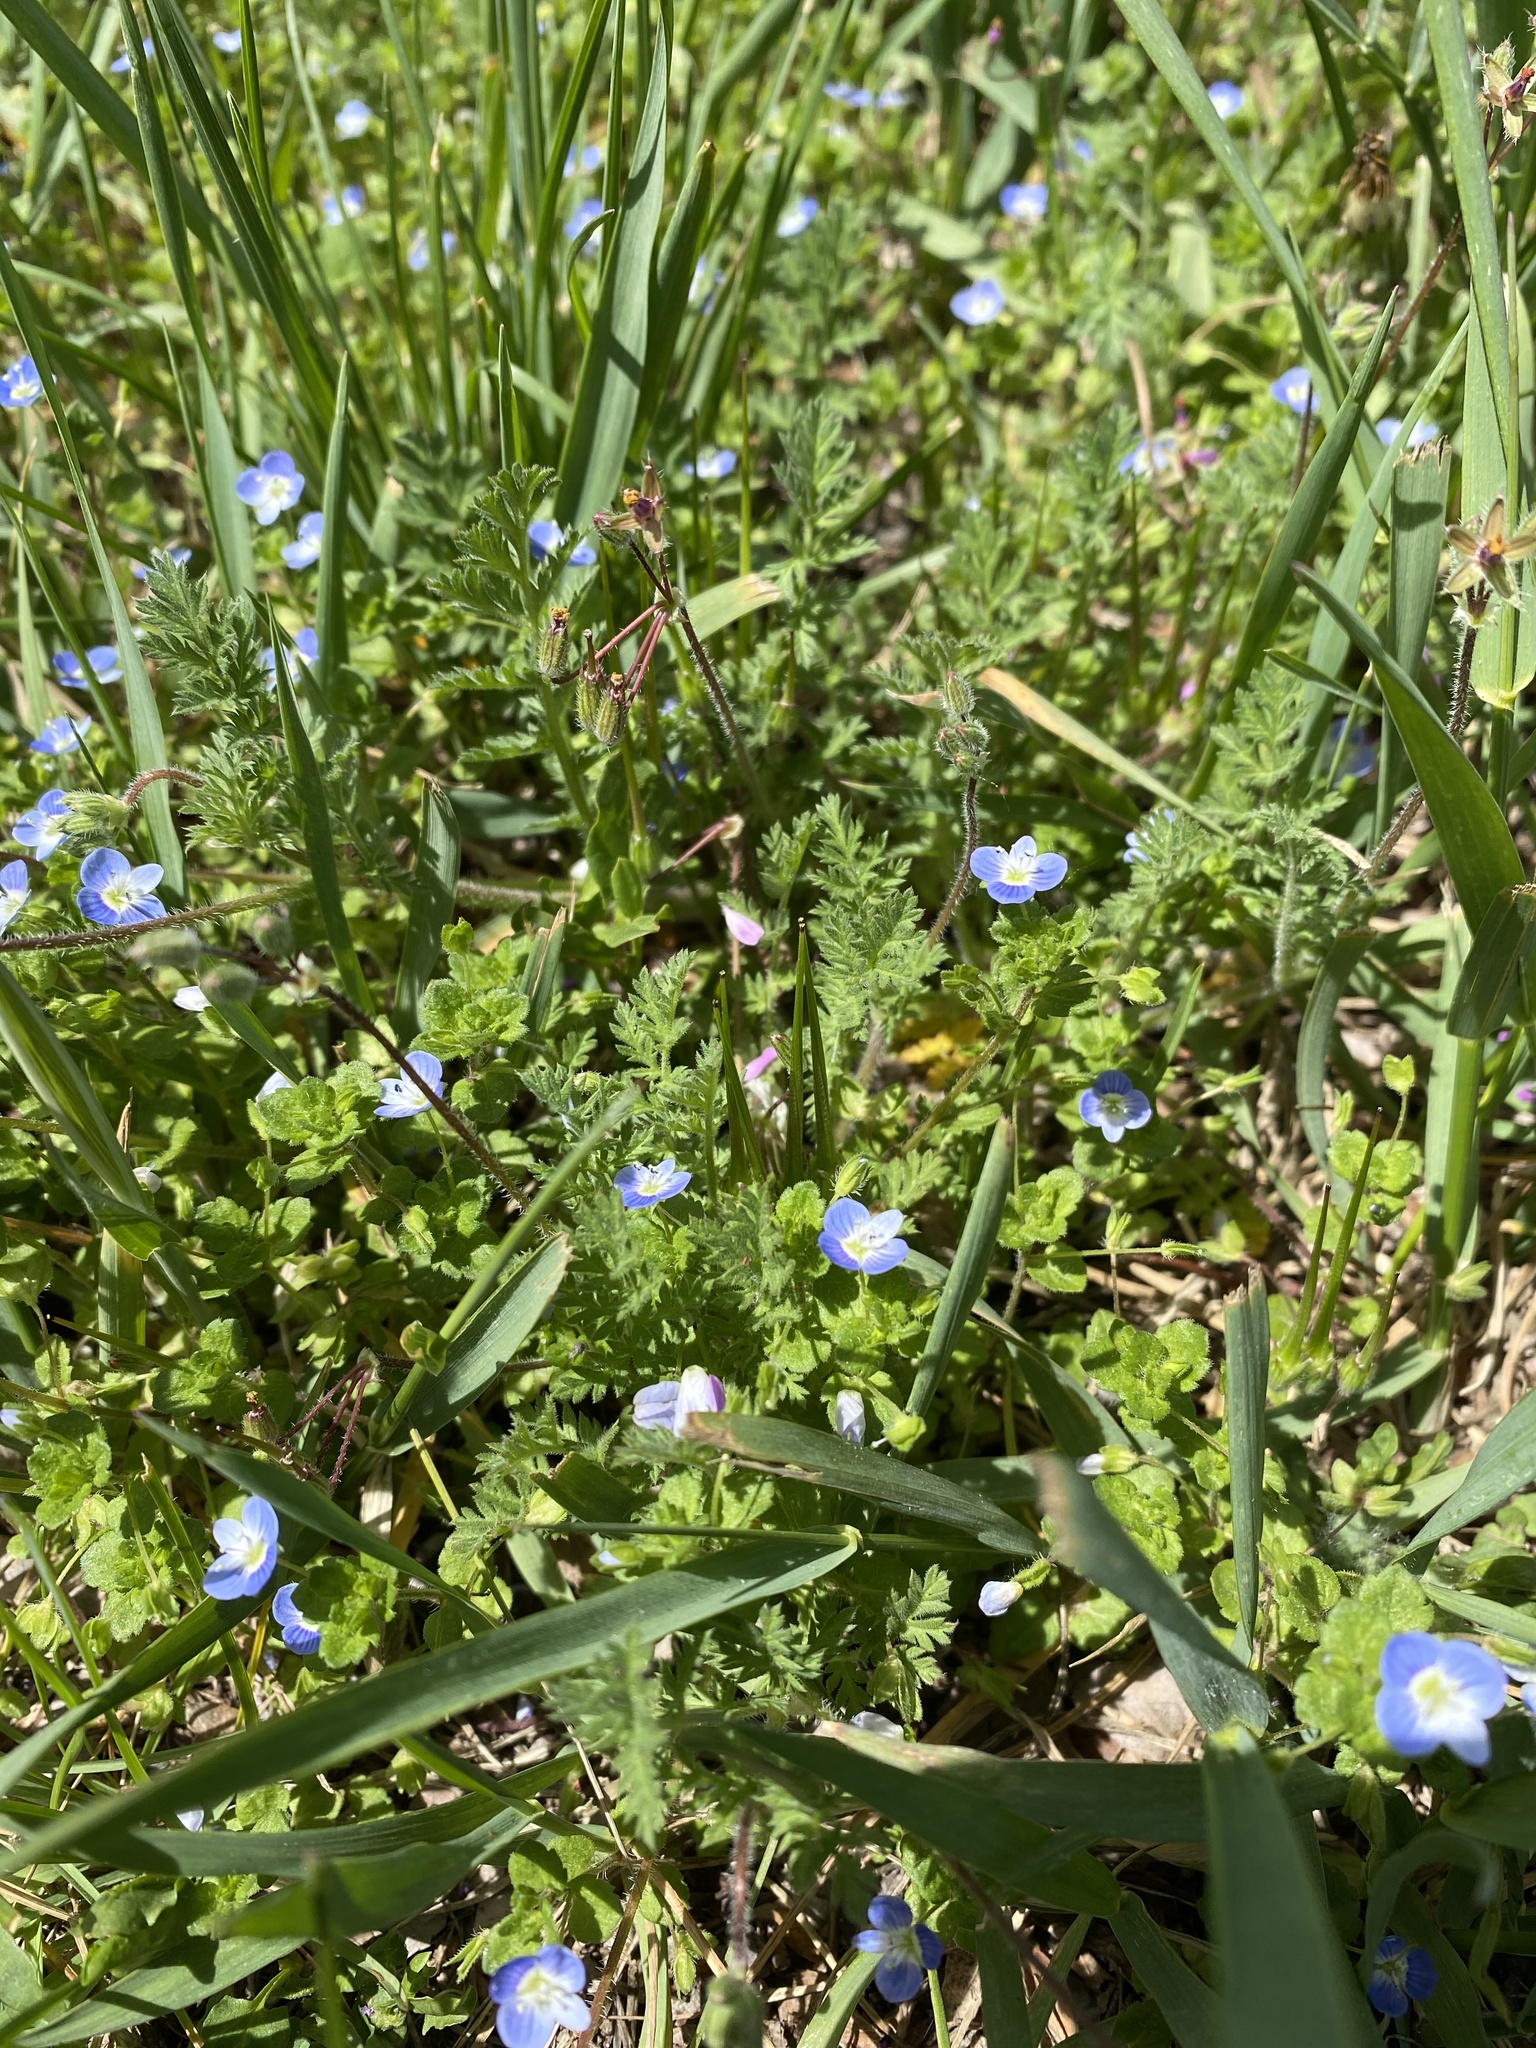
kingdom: Plantae
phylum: Tracheophyta
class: Magnoliopsida
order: Lamiales
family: Plantaginaceae
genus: Veronica
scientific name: Veronica persica
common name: Common field-speedwell
